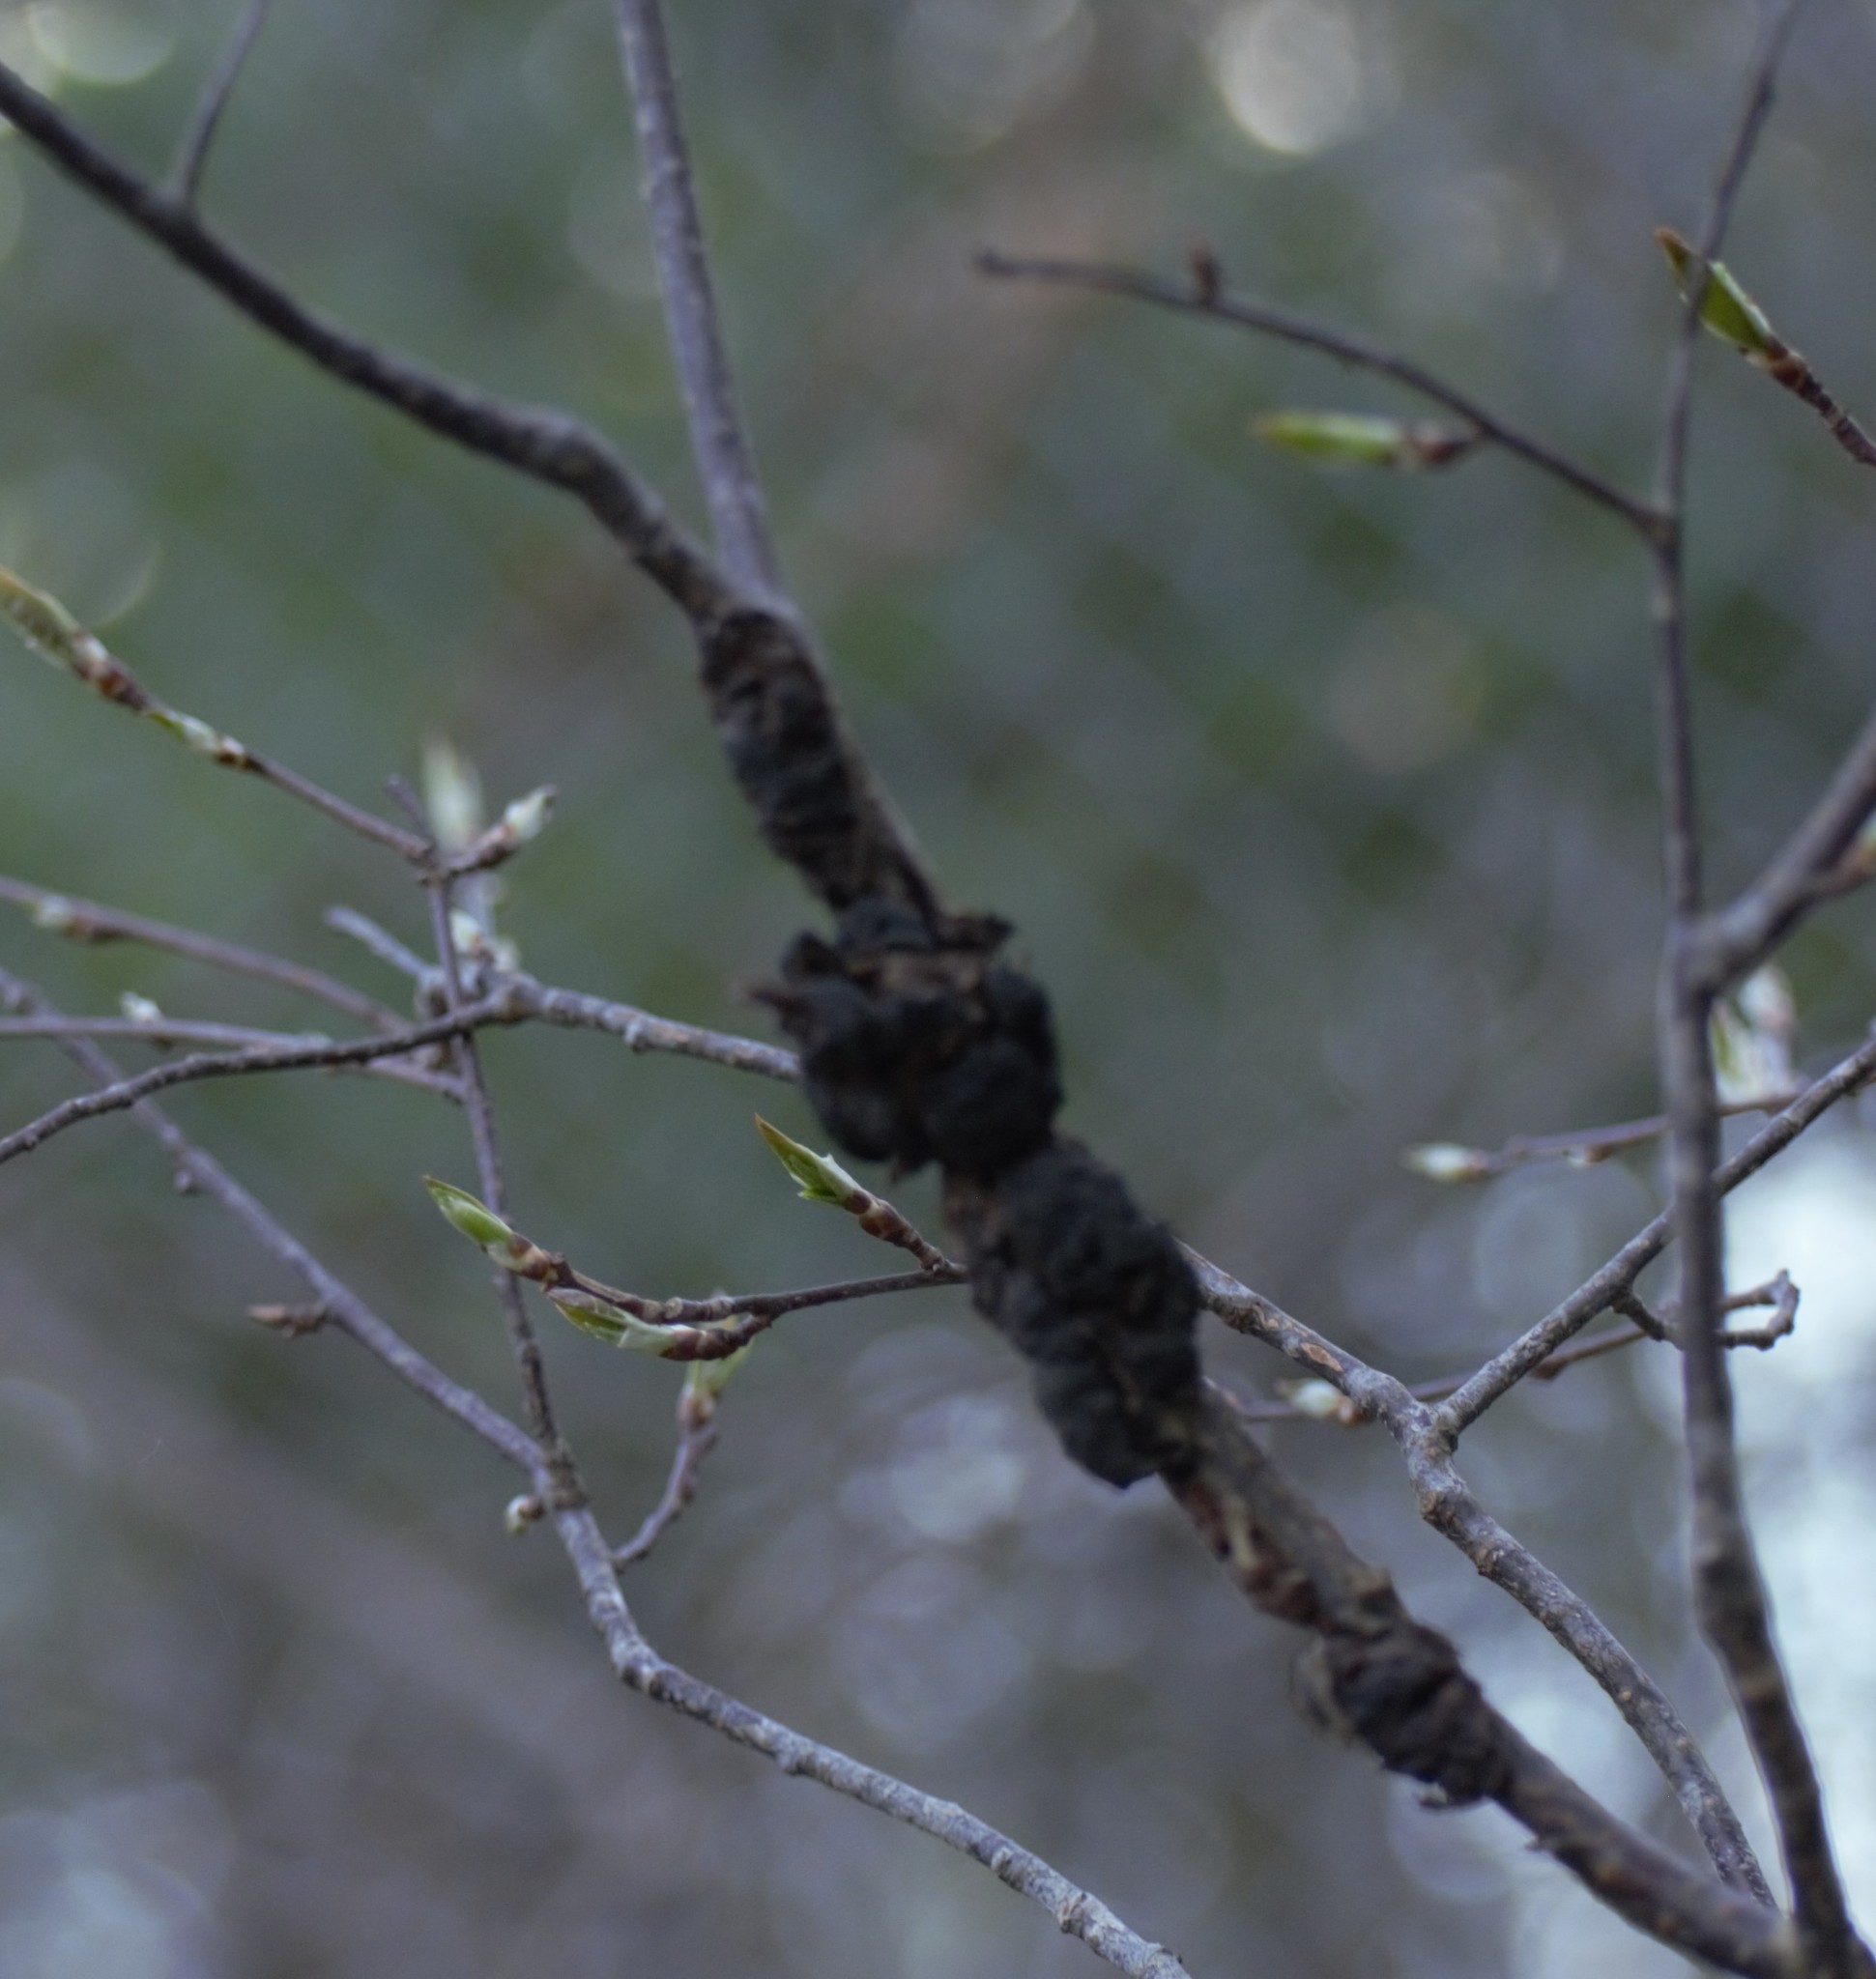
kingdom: Fungi
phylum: Ascomycota
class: Dothideomycetes
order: Venturiales
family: Venturiaceae
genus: Apiosporina
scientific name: Apiosporina morbosa
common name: Black knot
